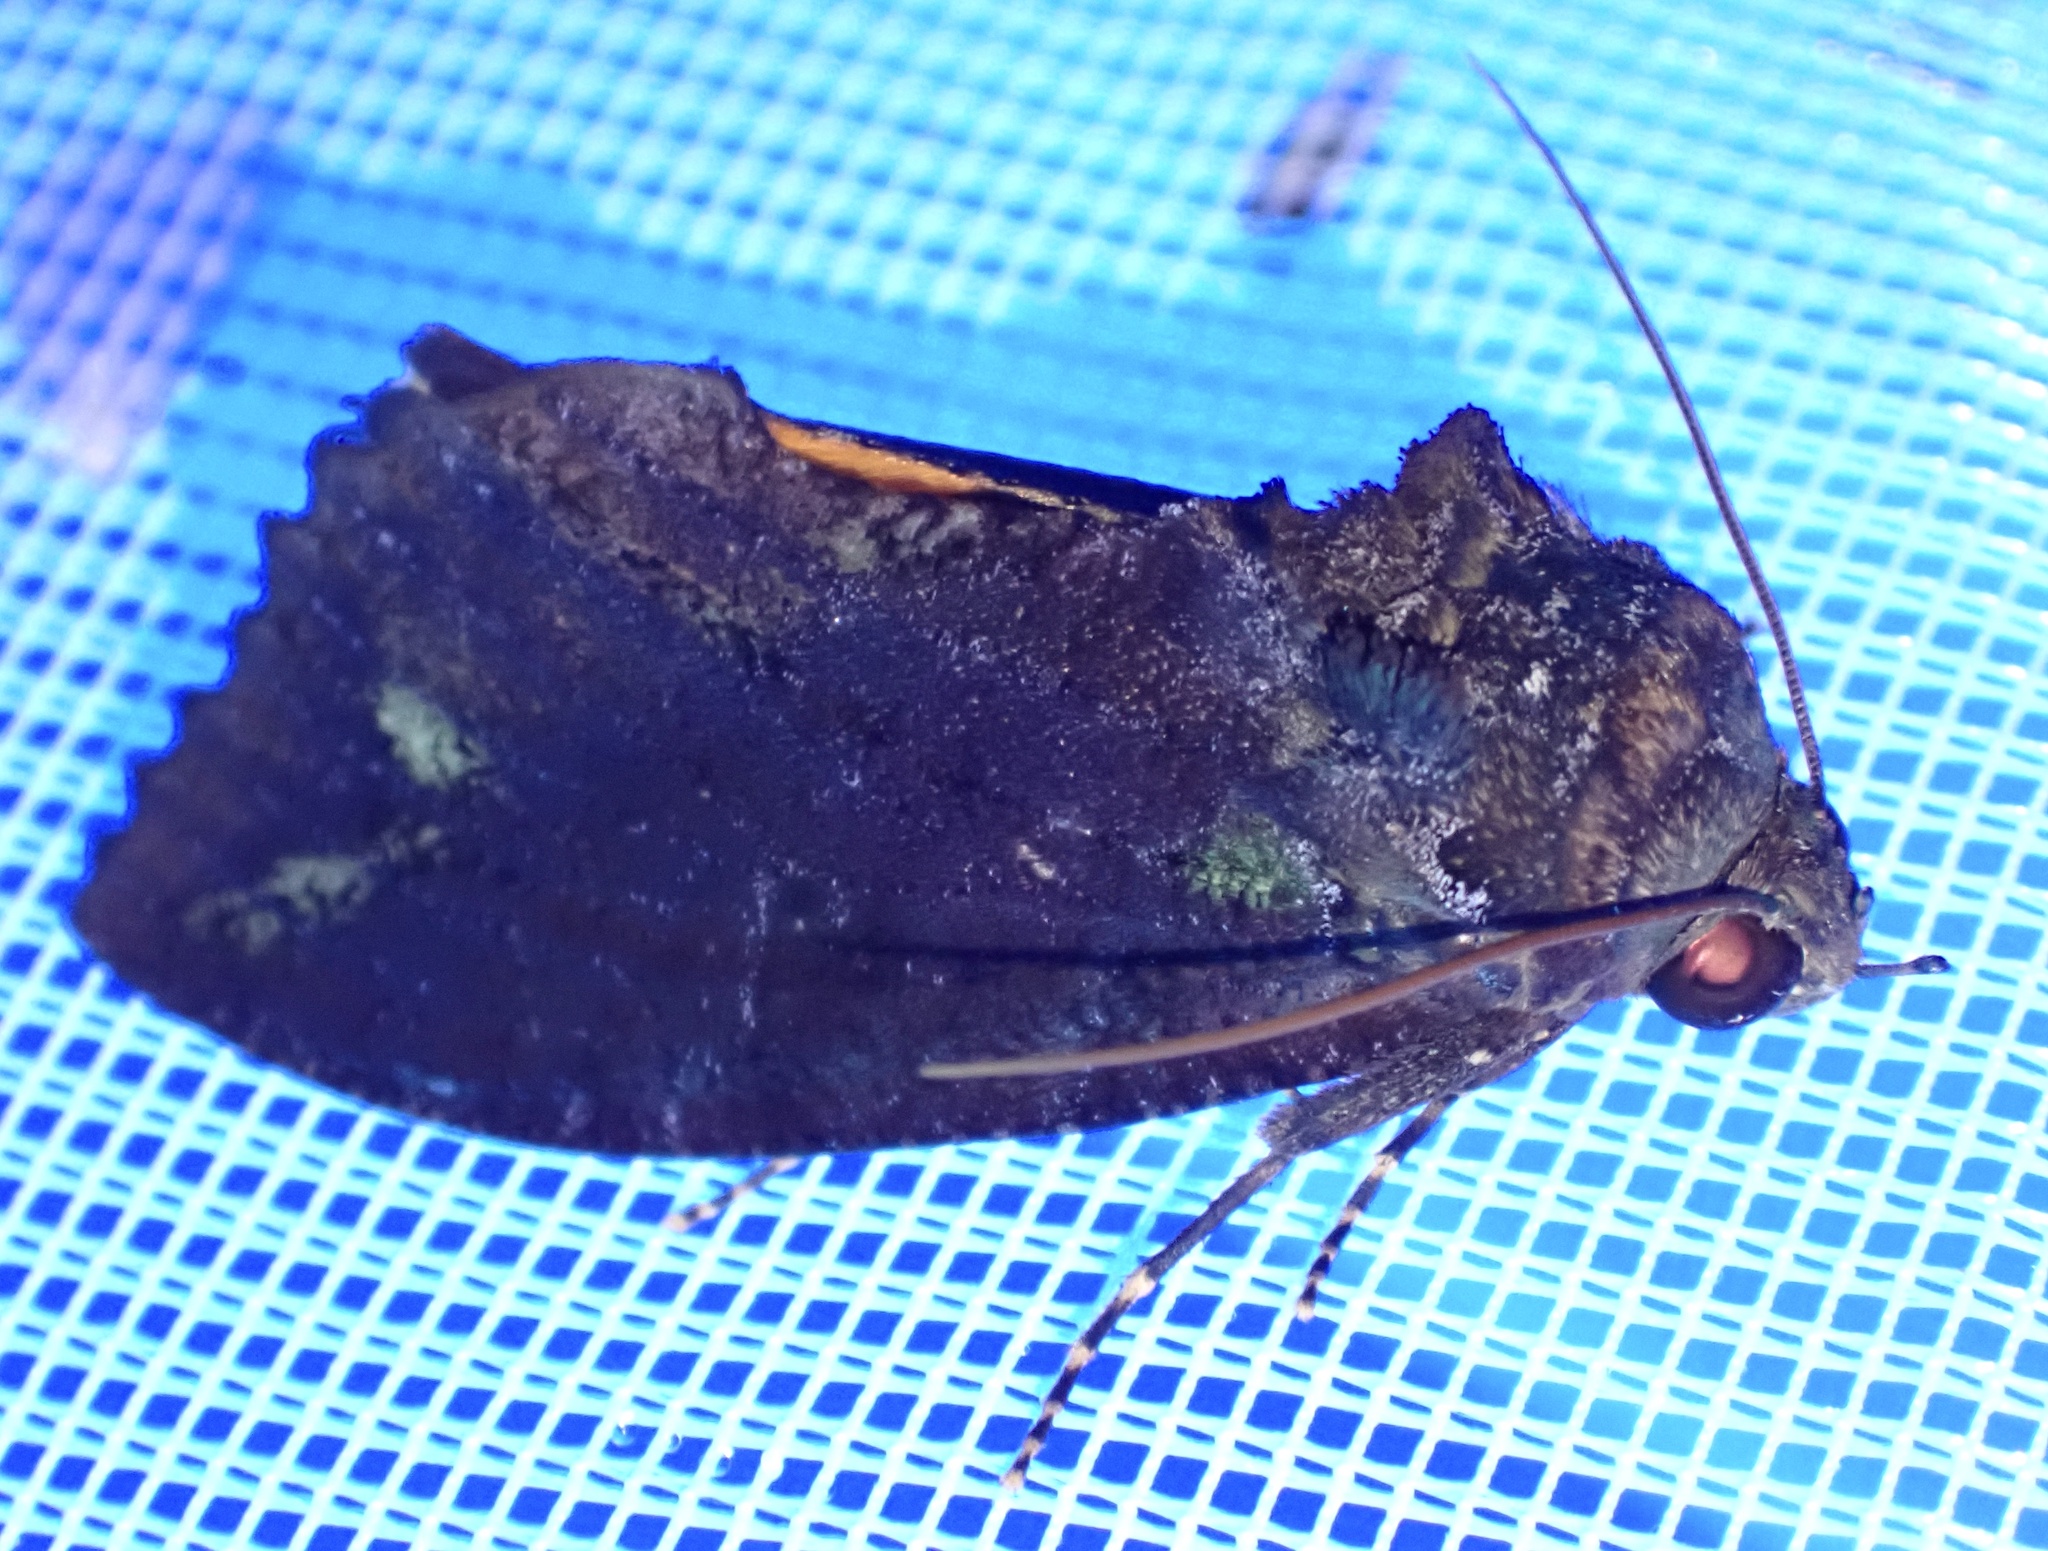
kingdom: Animalia
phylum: Arthropoda
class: Insecta
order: Lepidoptera
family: Erebidae
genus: Eudocima
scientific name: Eudocima jordani
